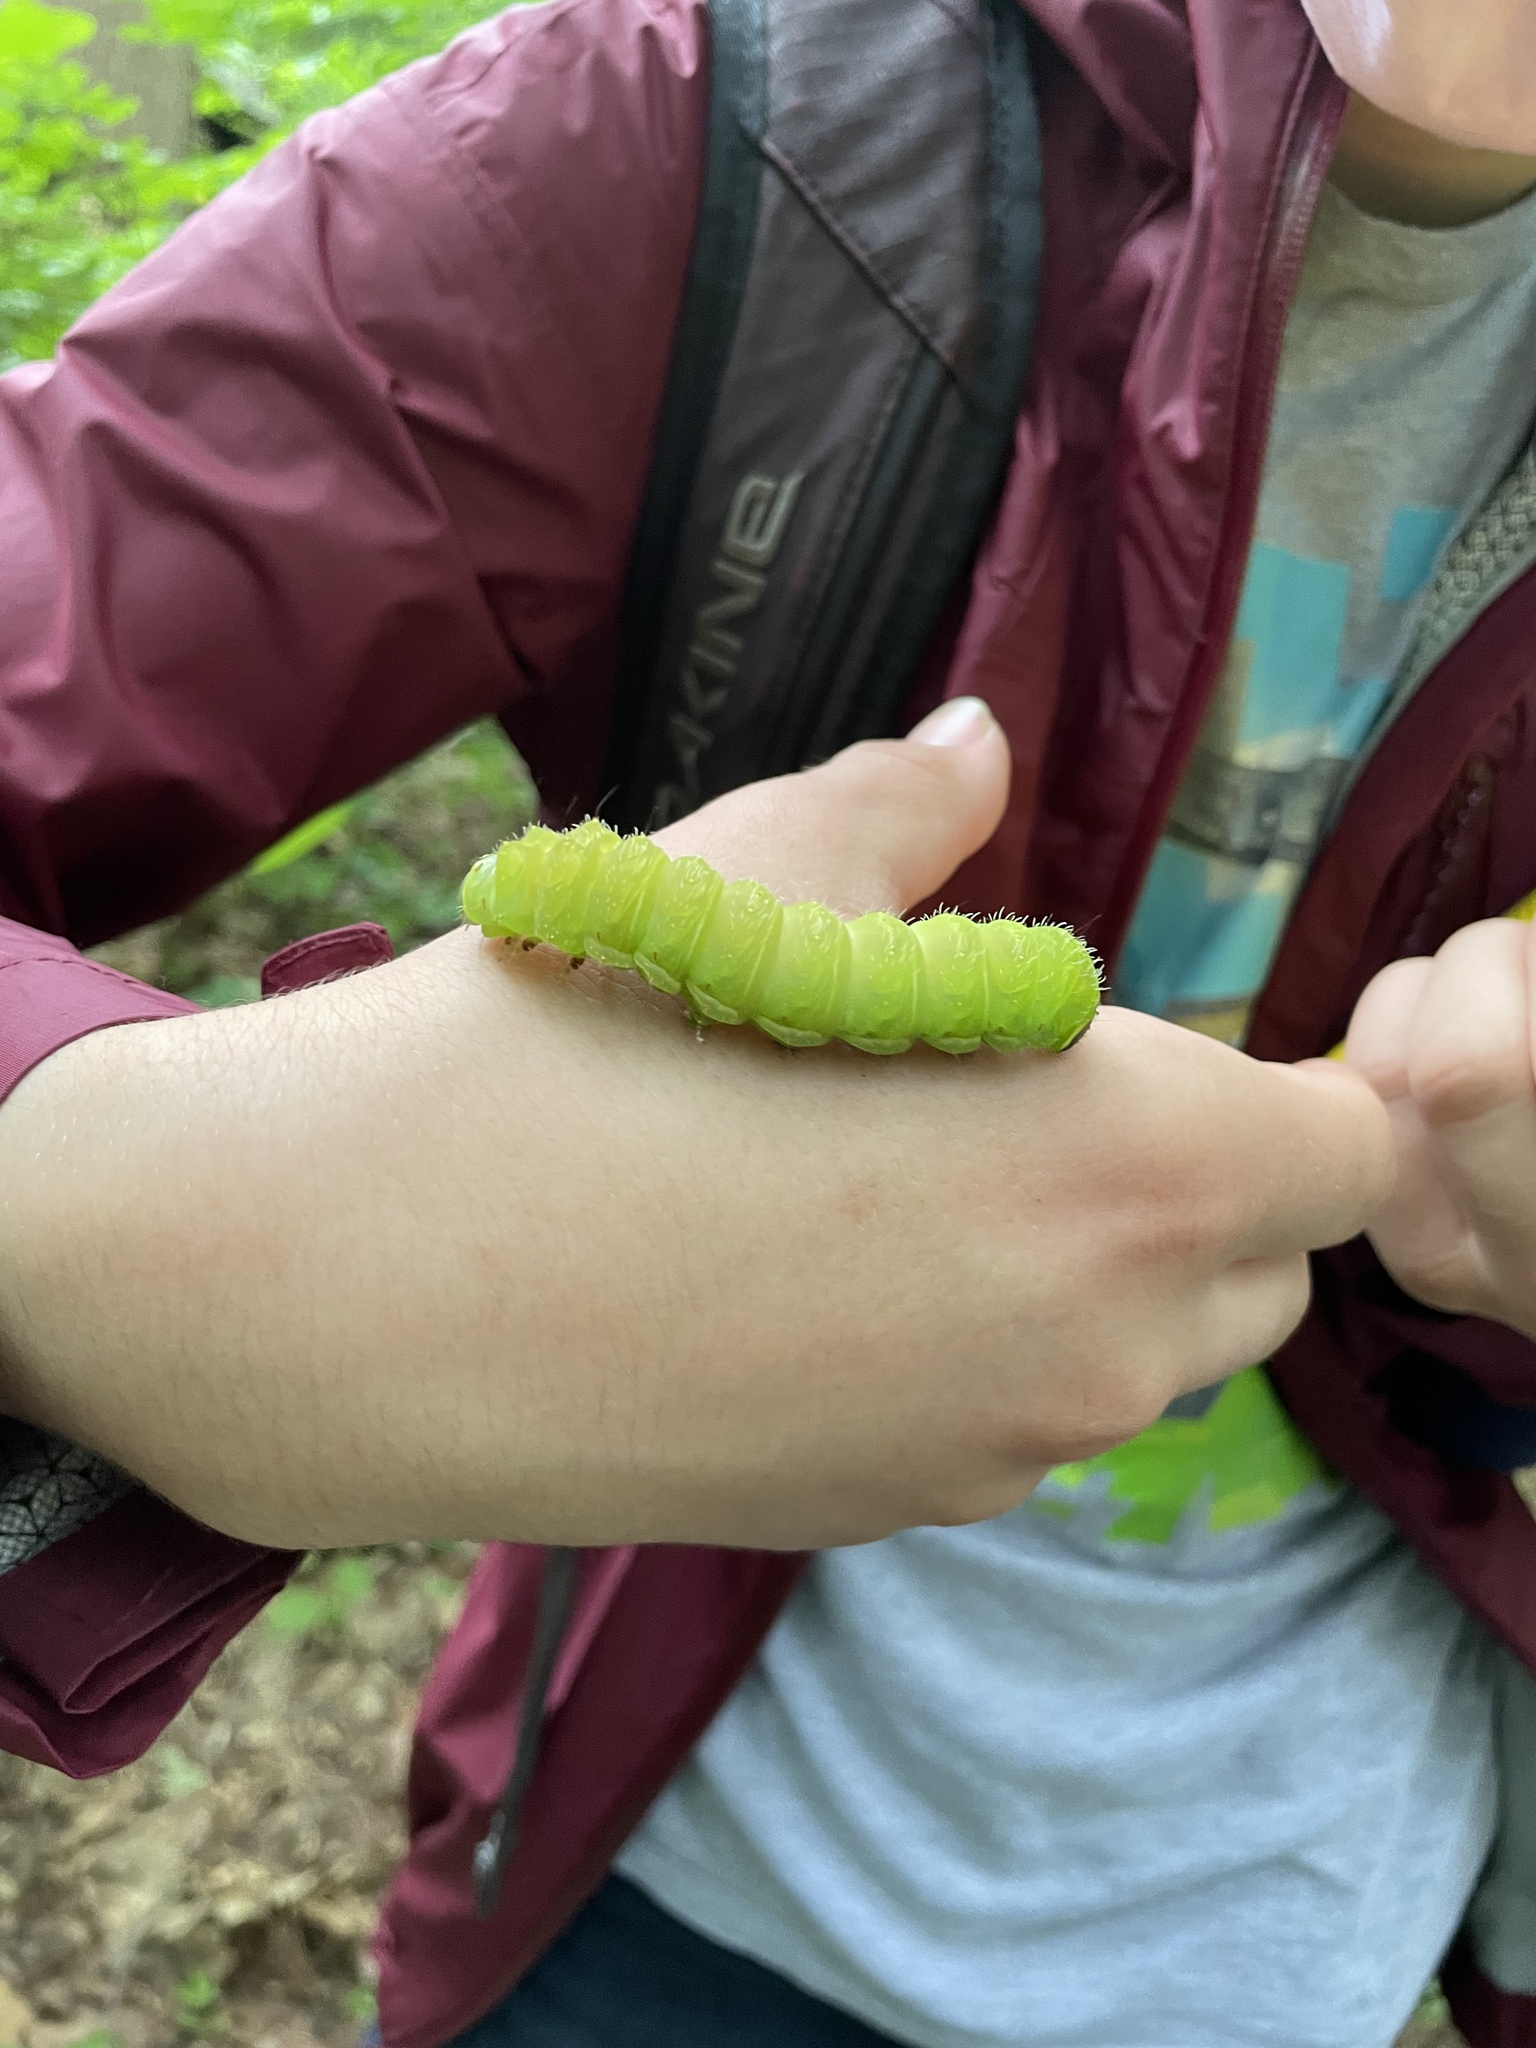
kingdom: Animalia
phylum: Arthropoda
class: Insecta
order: Lepidoptera
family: Saturniidae
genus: Actias
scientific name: Actias luna
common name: Luna moth
